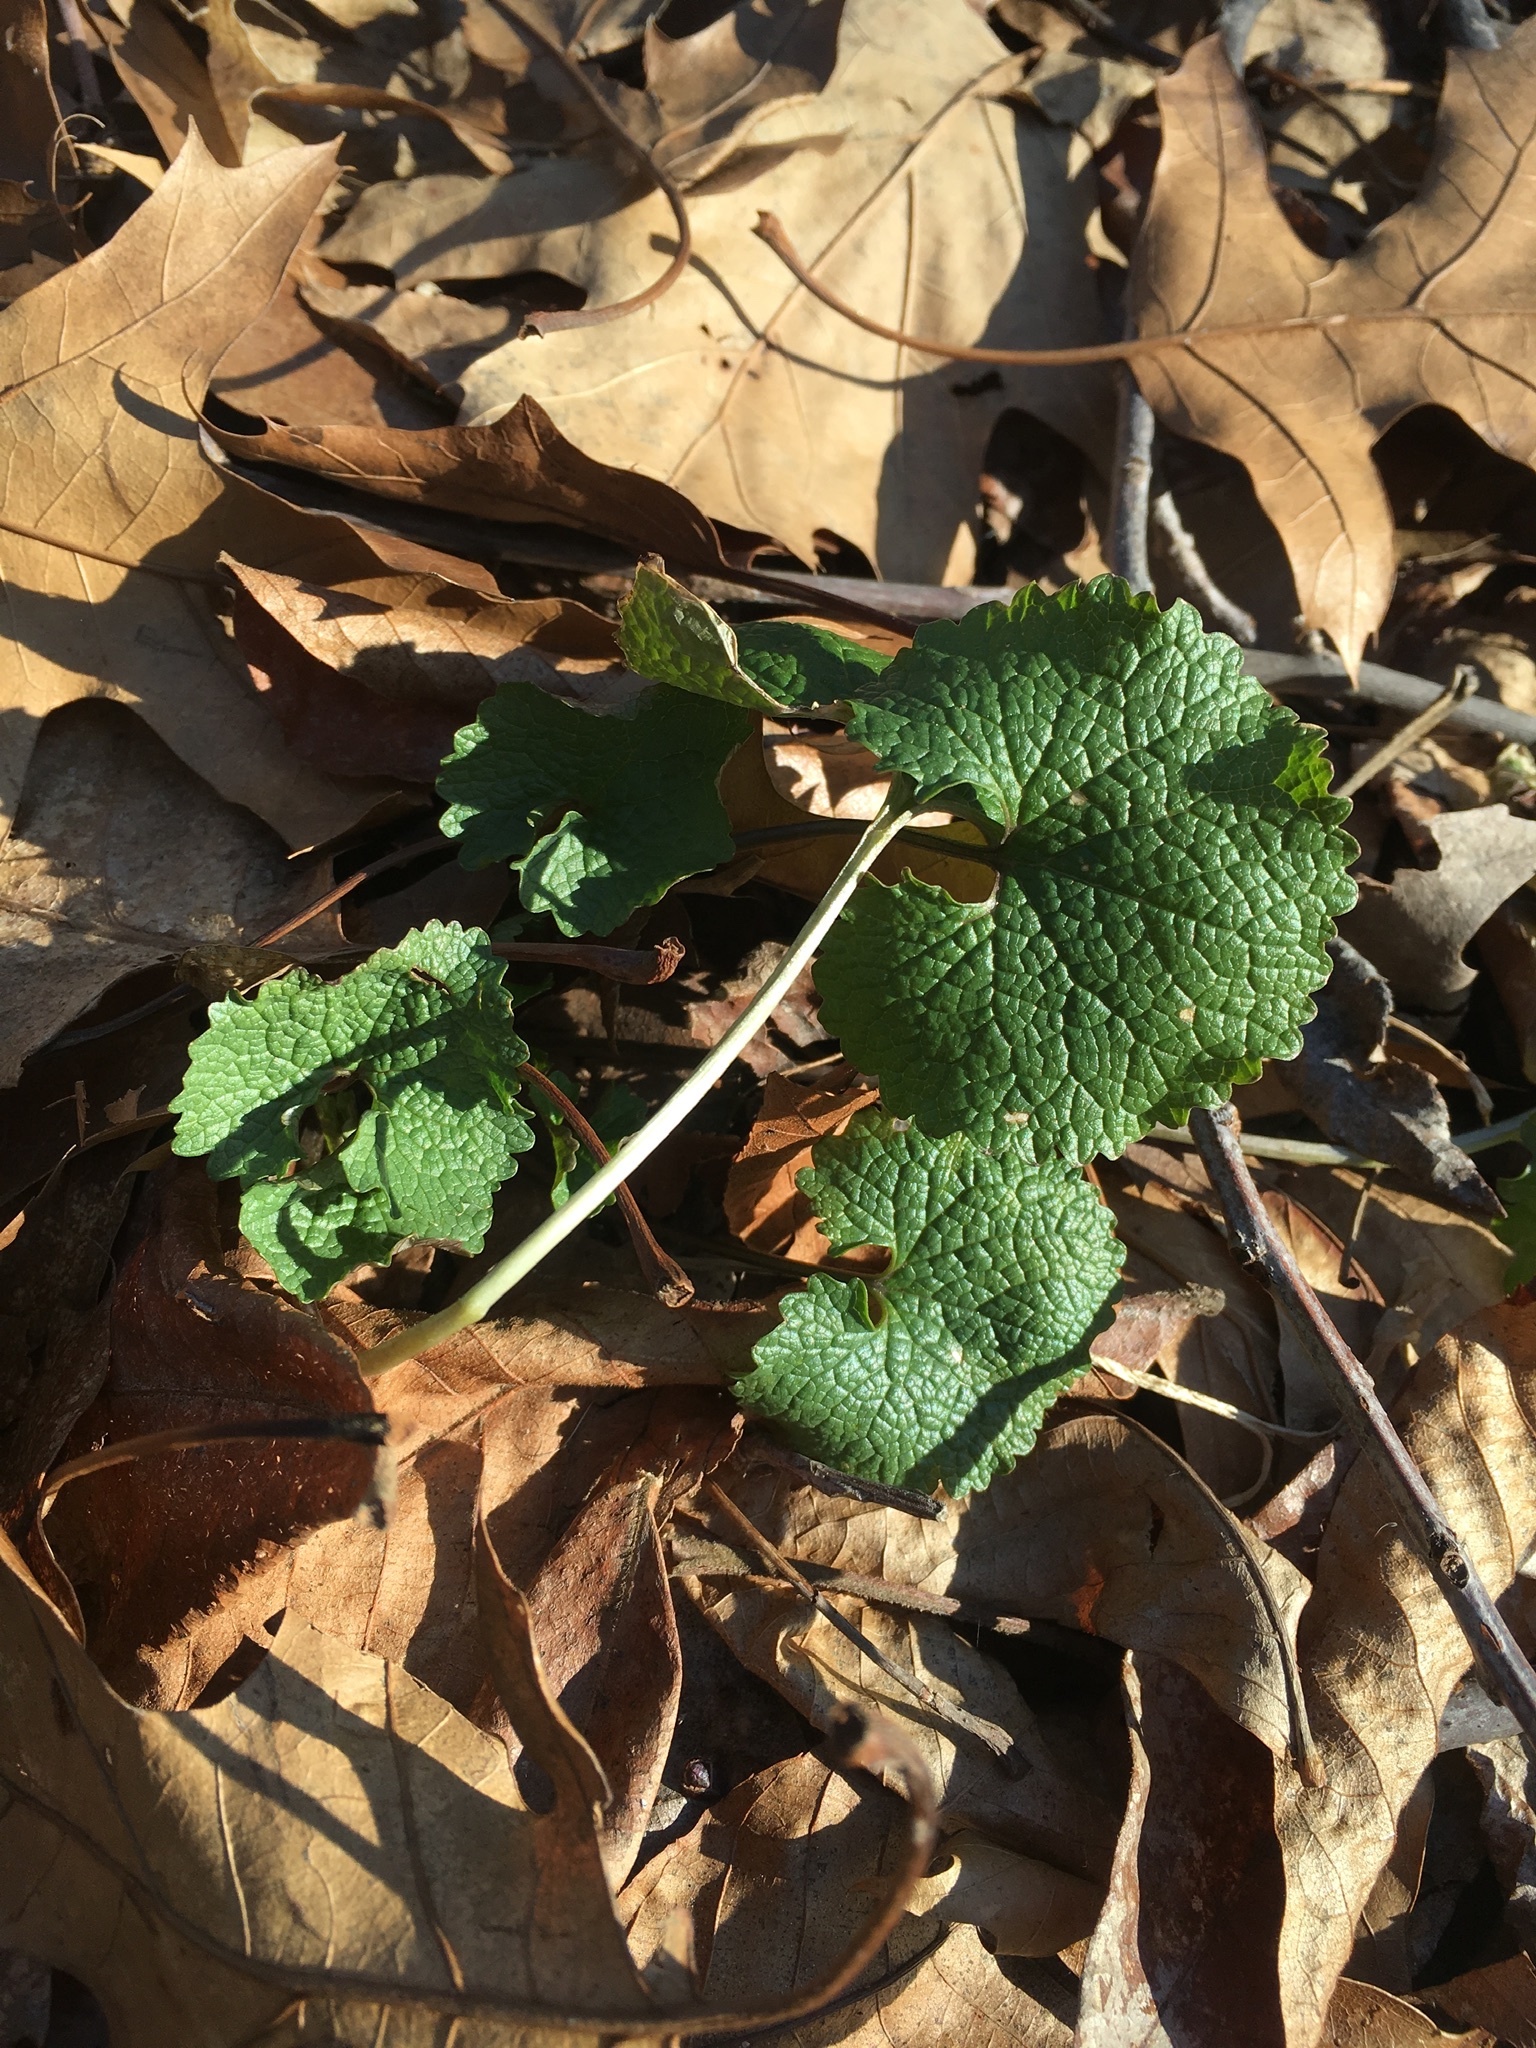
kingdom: Plantae
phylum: Tracheophyta
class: Magnoliopsida
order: Brassicales
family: Brassicaceae
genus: Alliaria
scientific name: Alliaria petiolata
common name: Garlic mustard
